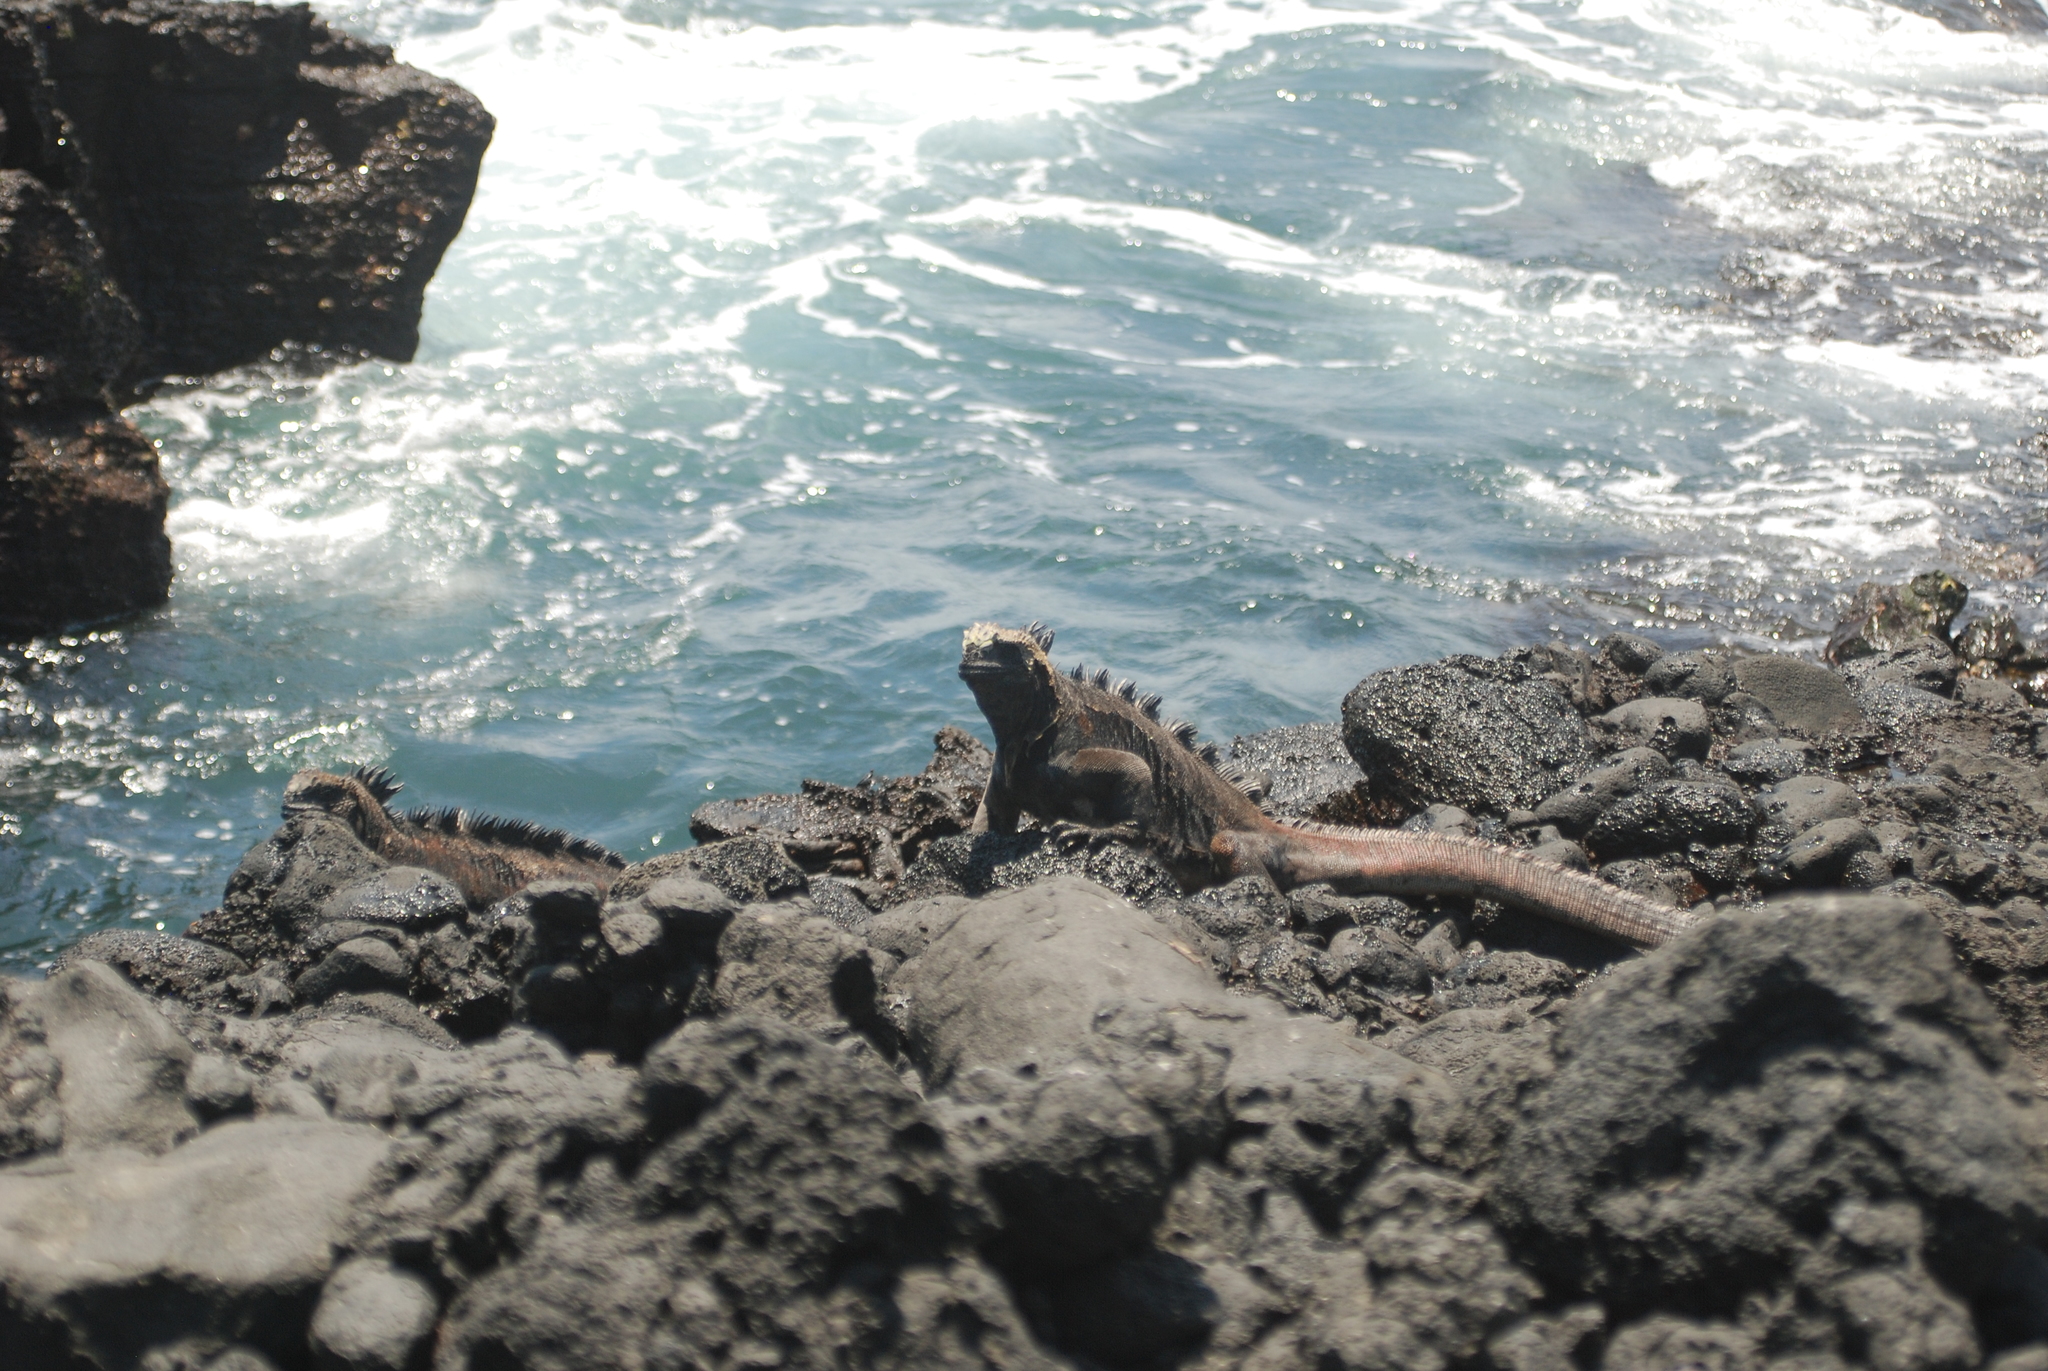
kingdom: Animalia
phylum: Chordata
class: Squamata
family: Iguanidae
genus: Amblyrhynchus
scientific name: Amblyrhynchus cristatus
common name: Marine iguana
